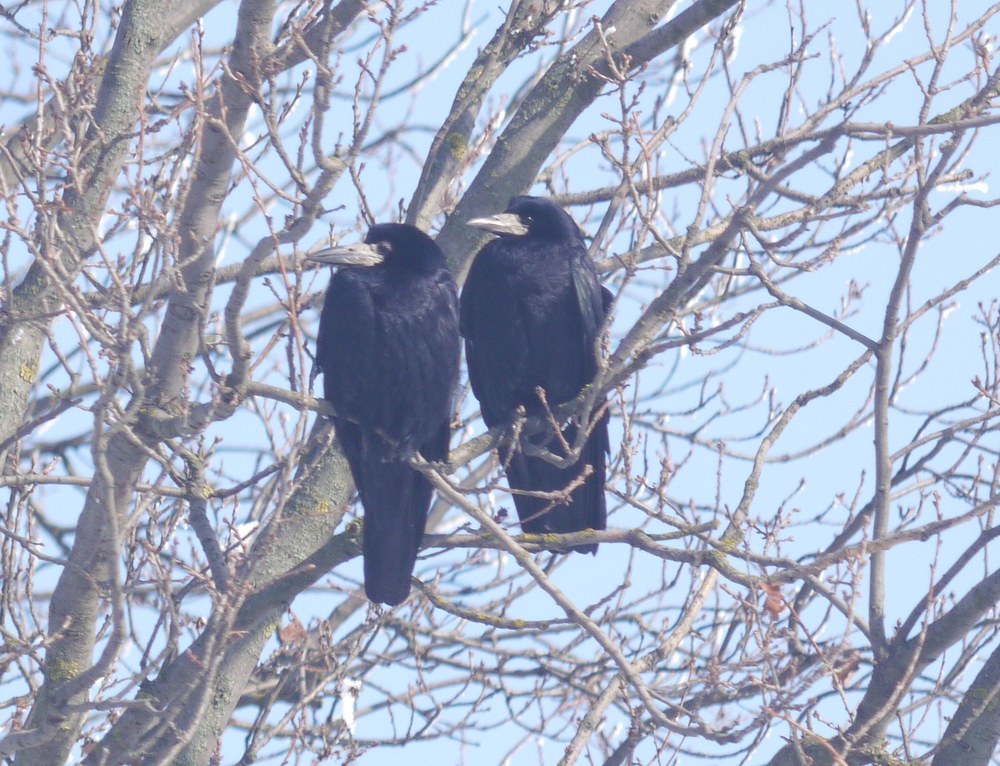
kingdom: Animalia
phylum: Chordata
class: Aves
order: Passeriformes
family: Corvidae
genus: Corvus
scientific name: Corvus frugilegus
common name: Rook
